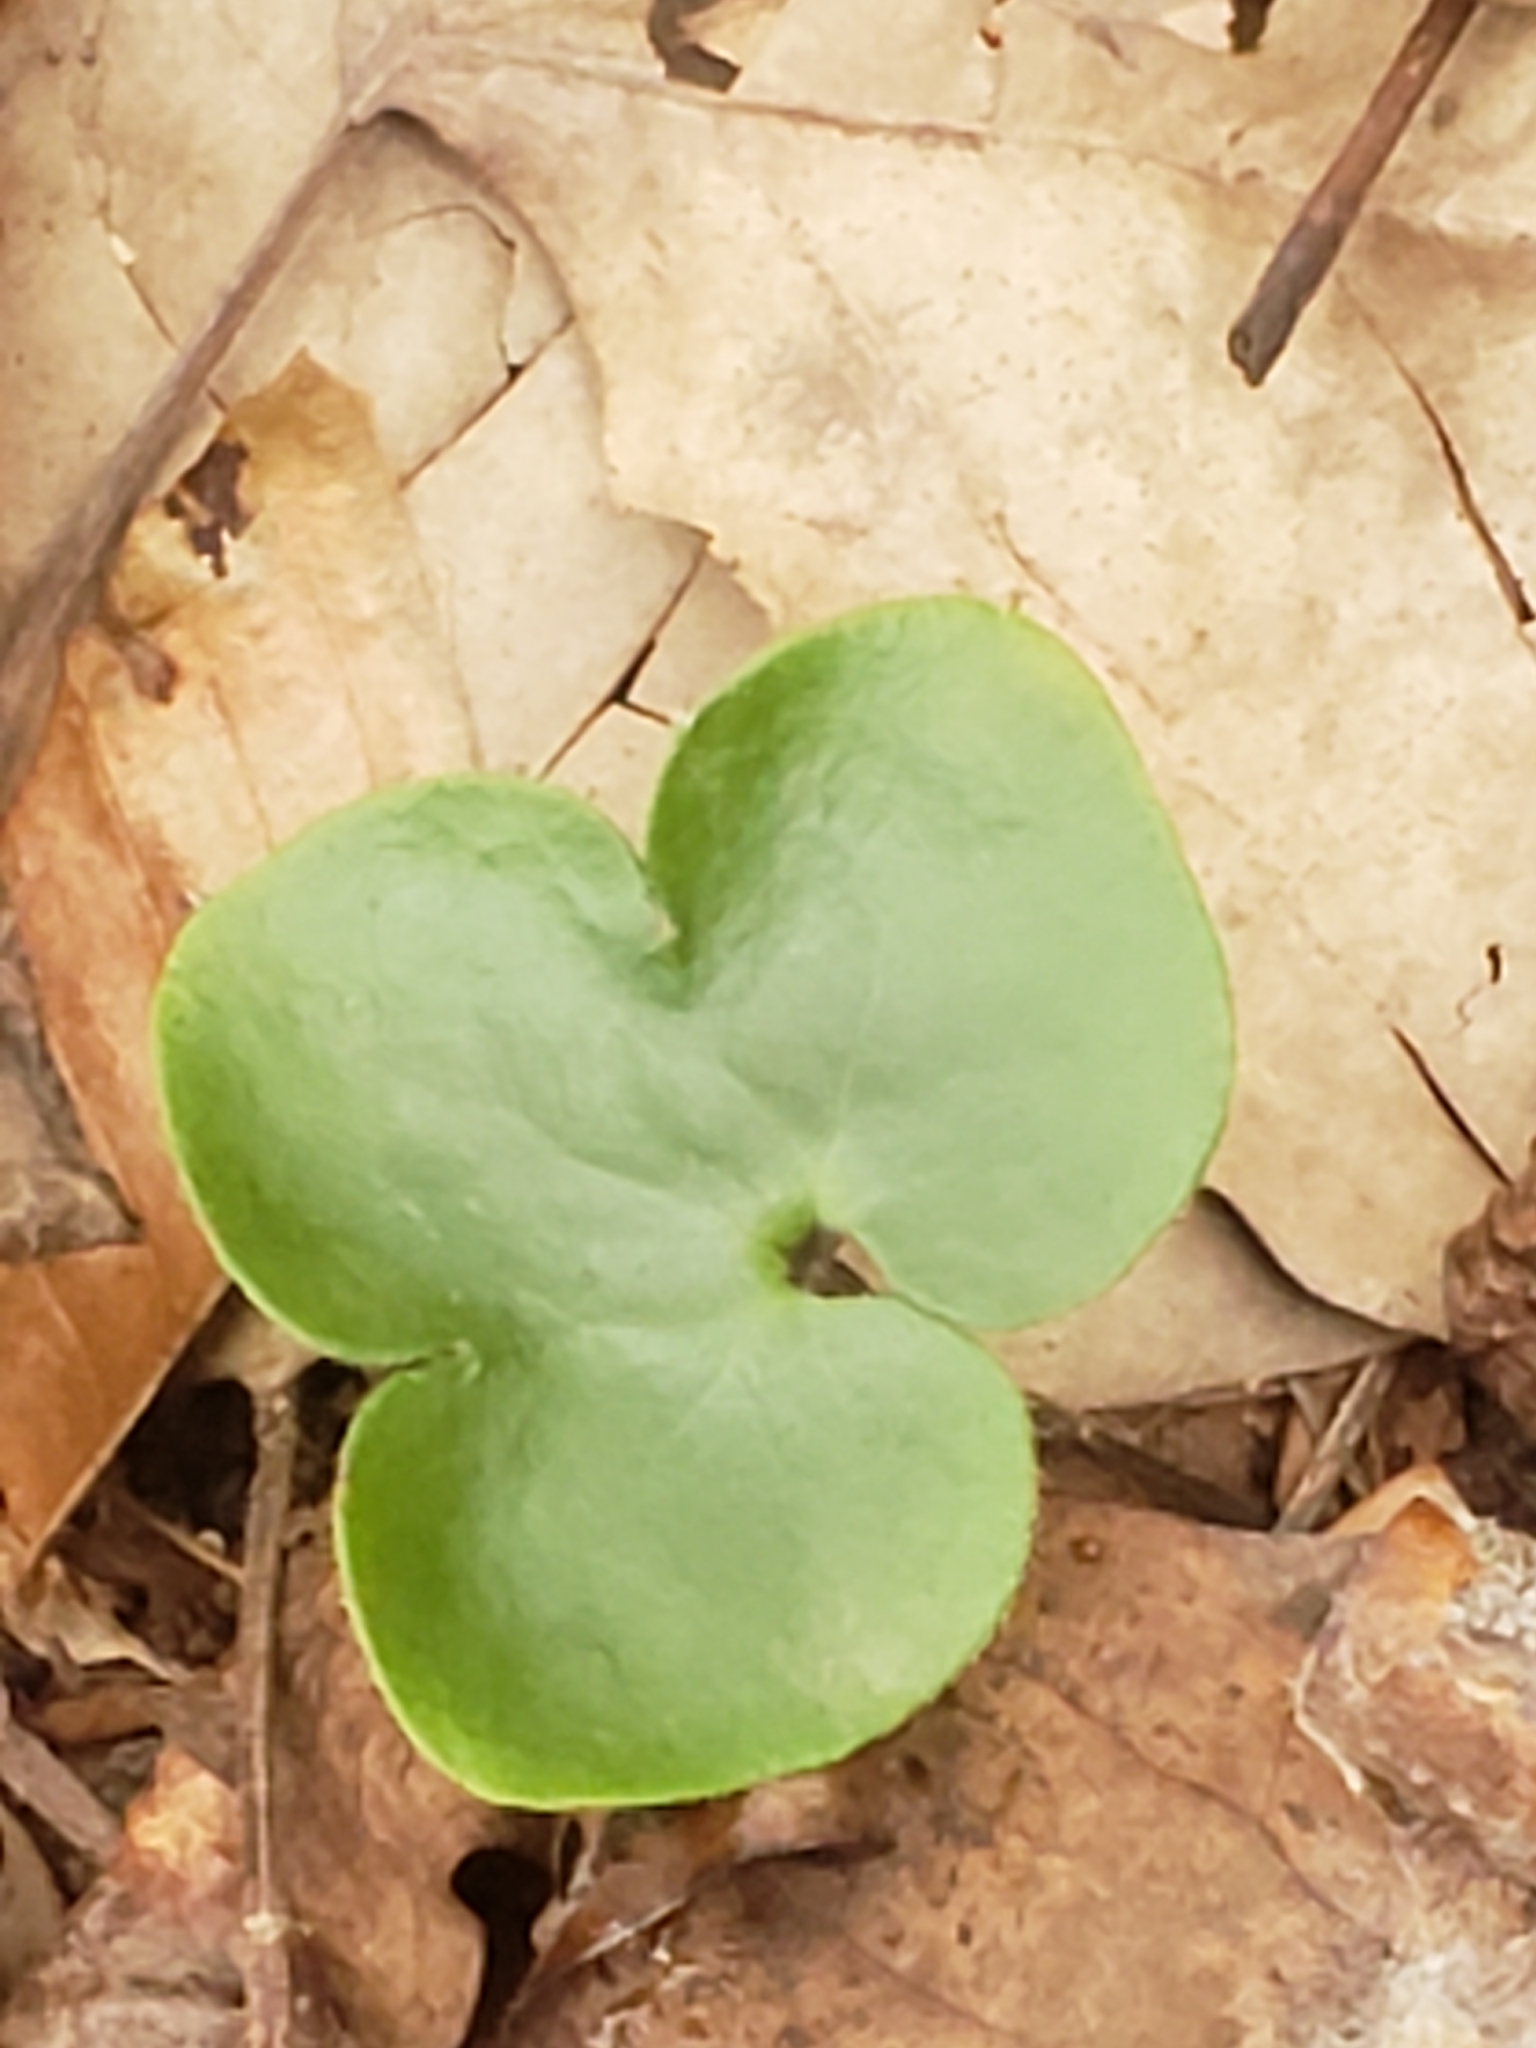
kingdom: Plantae
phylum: Tracheophyta
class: Magnoliopsida
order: Ranunculales
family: Ranunculaceae
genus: Hepatica
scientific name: Hepatica americana
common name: American hepatica
